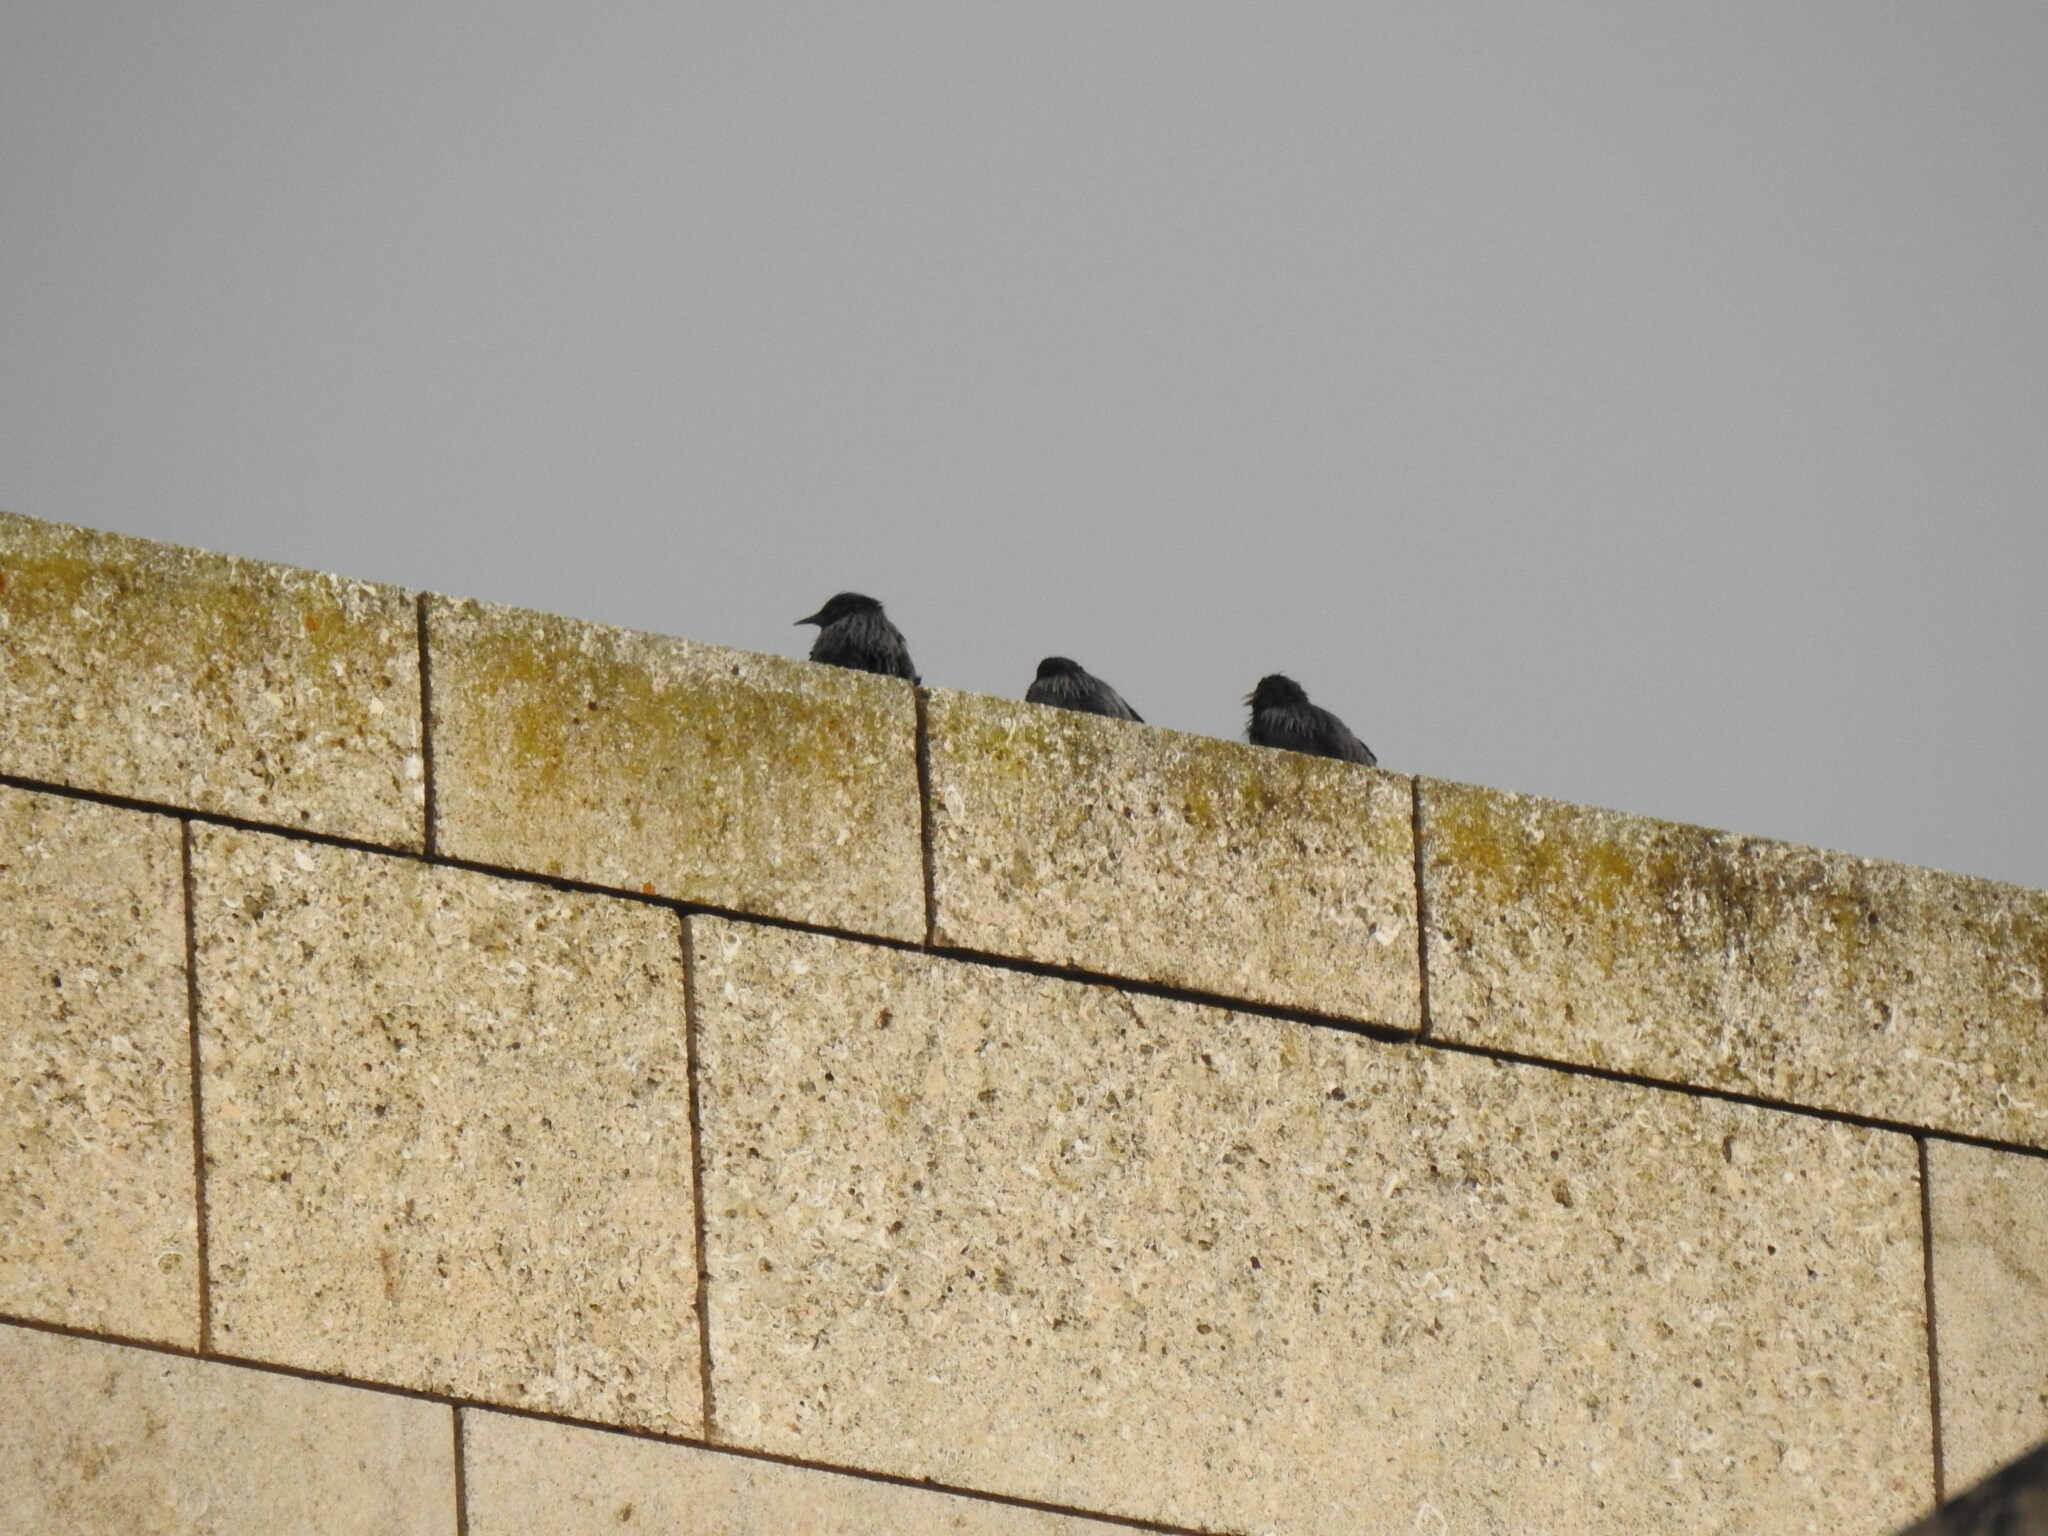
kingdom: Animalia
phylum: Chordata
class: Aves
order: Passeriformes
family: Sturnidae
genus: Sturnus
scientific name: Sturnus unicolor
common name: Spotless starling
